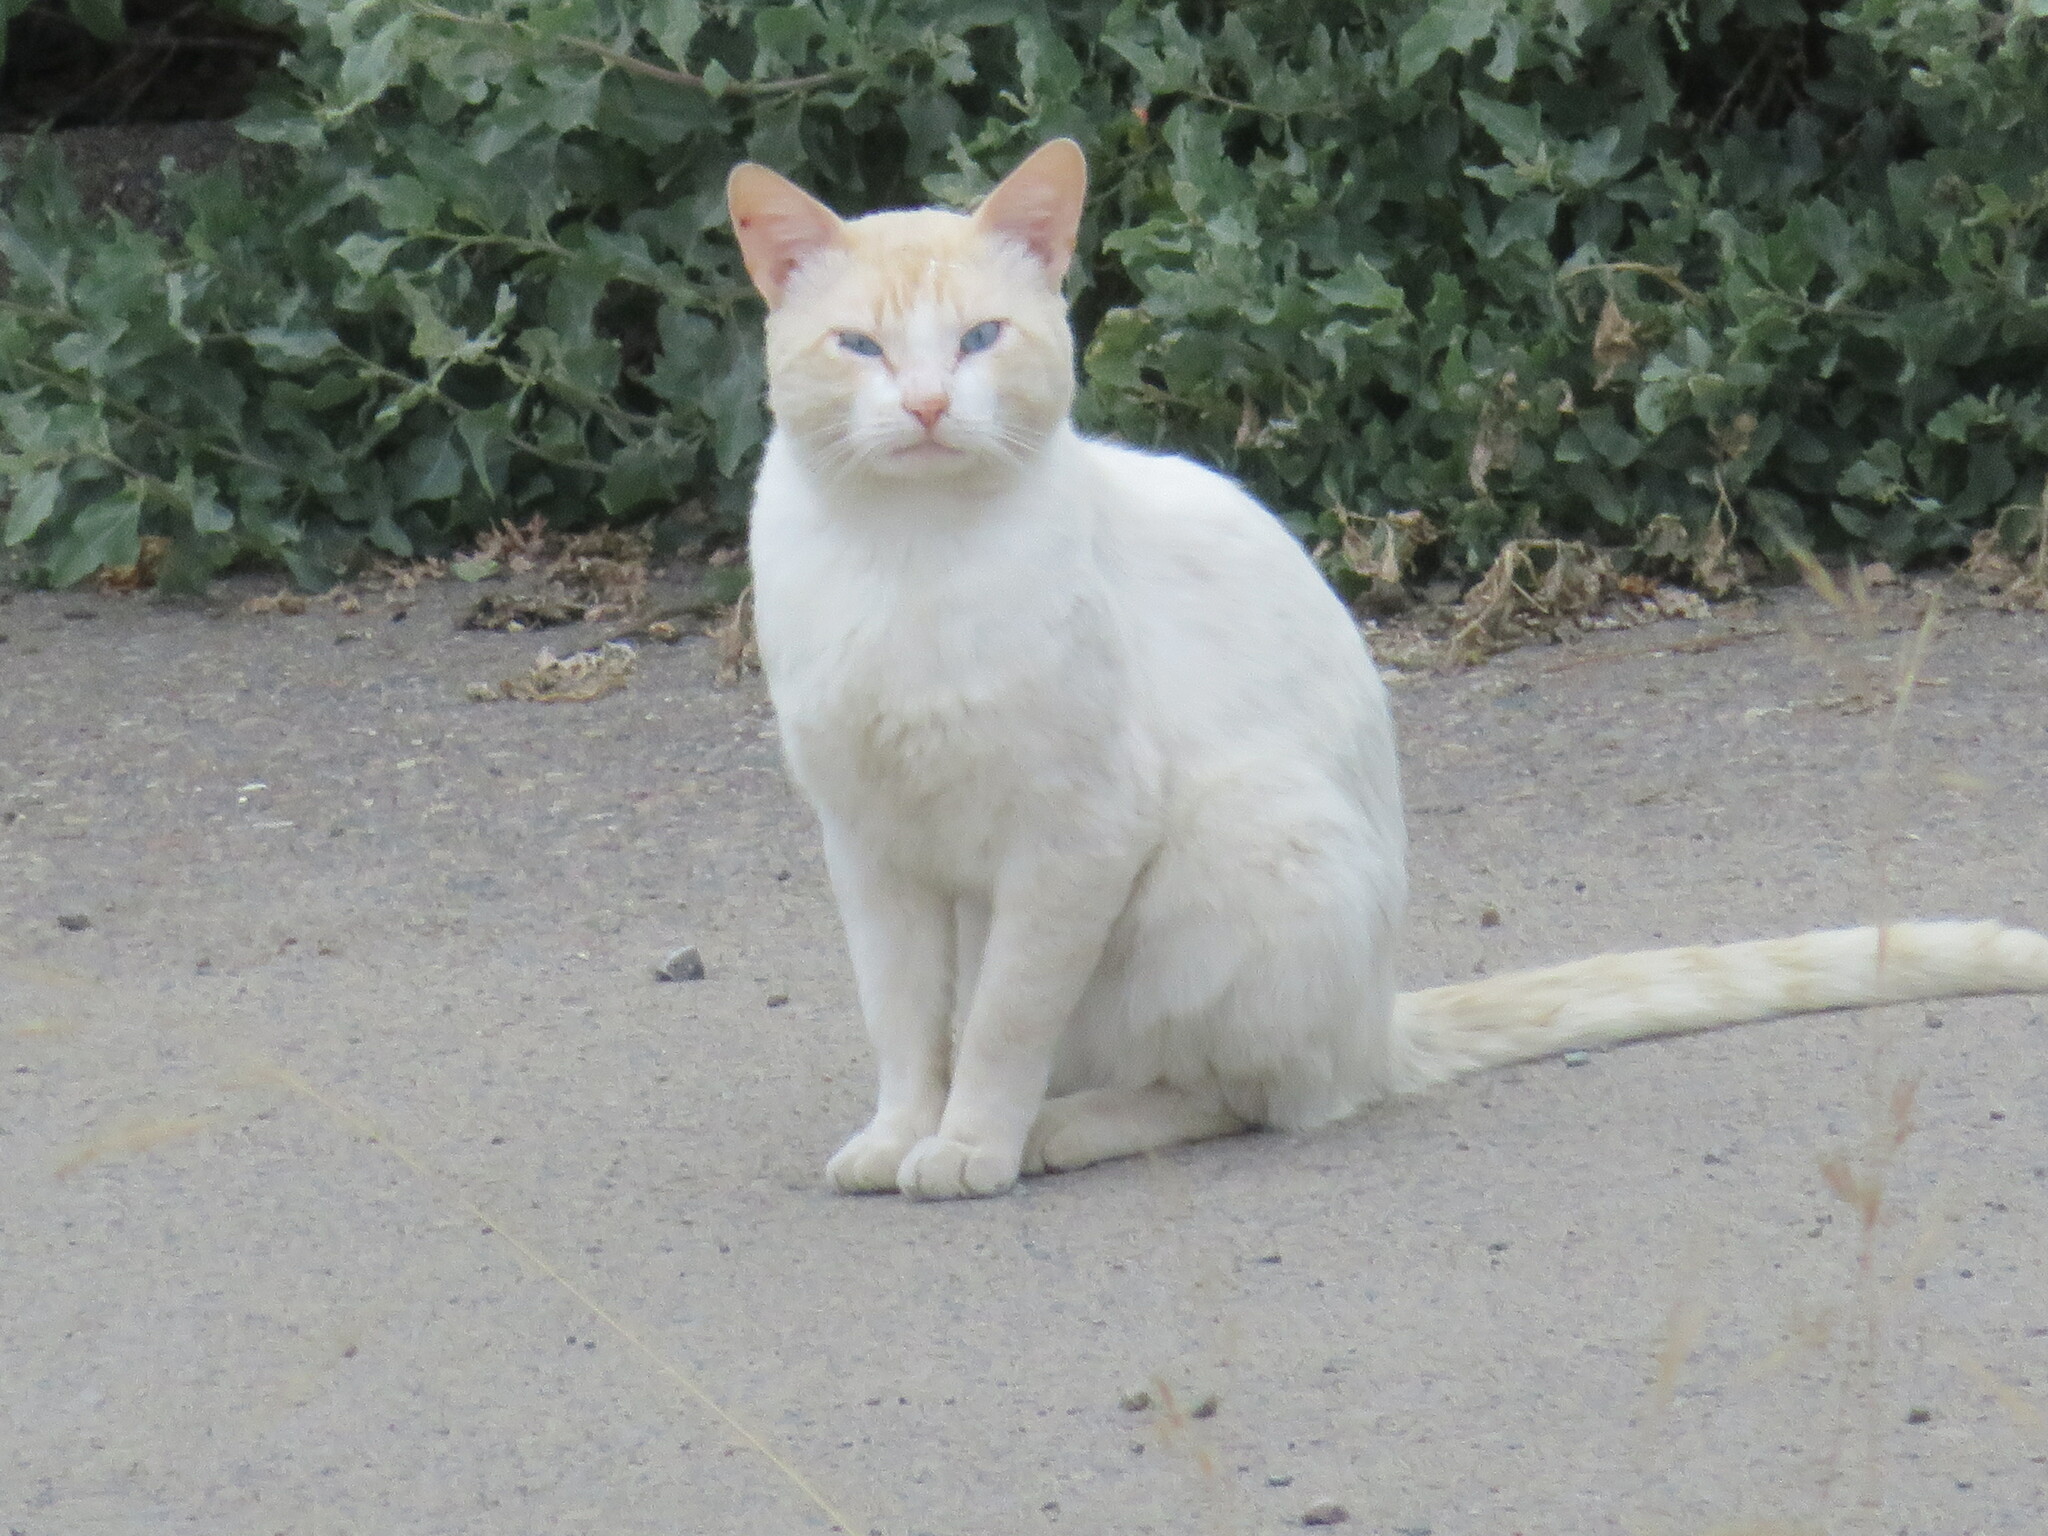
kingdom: Animalia
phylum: Chordata
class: Mammalia
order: Carnivora
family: Felidae
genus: Felis
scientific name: Felis catus
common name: Domestic cat
